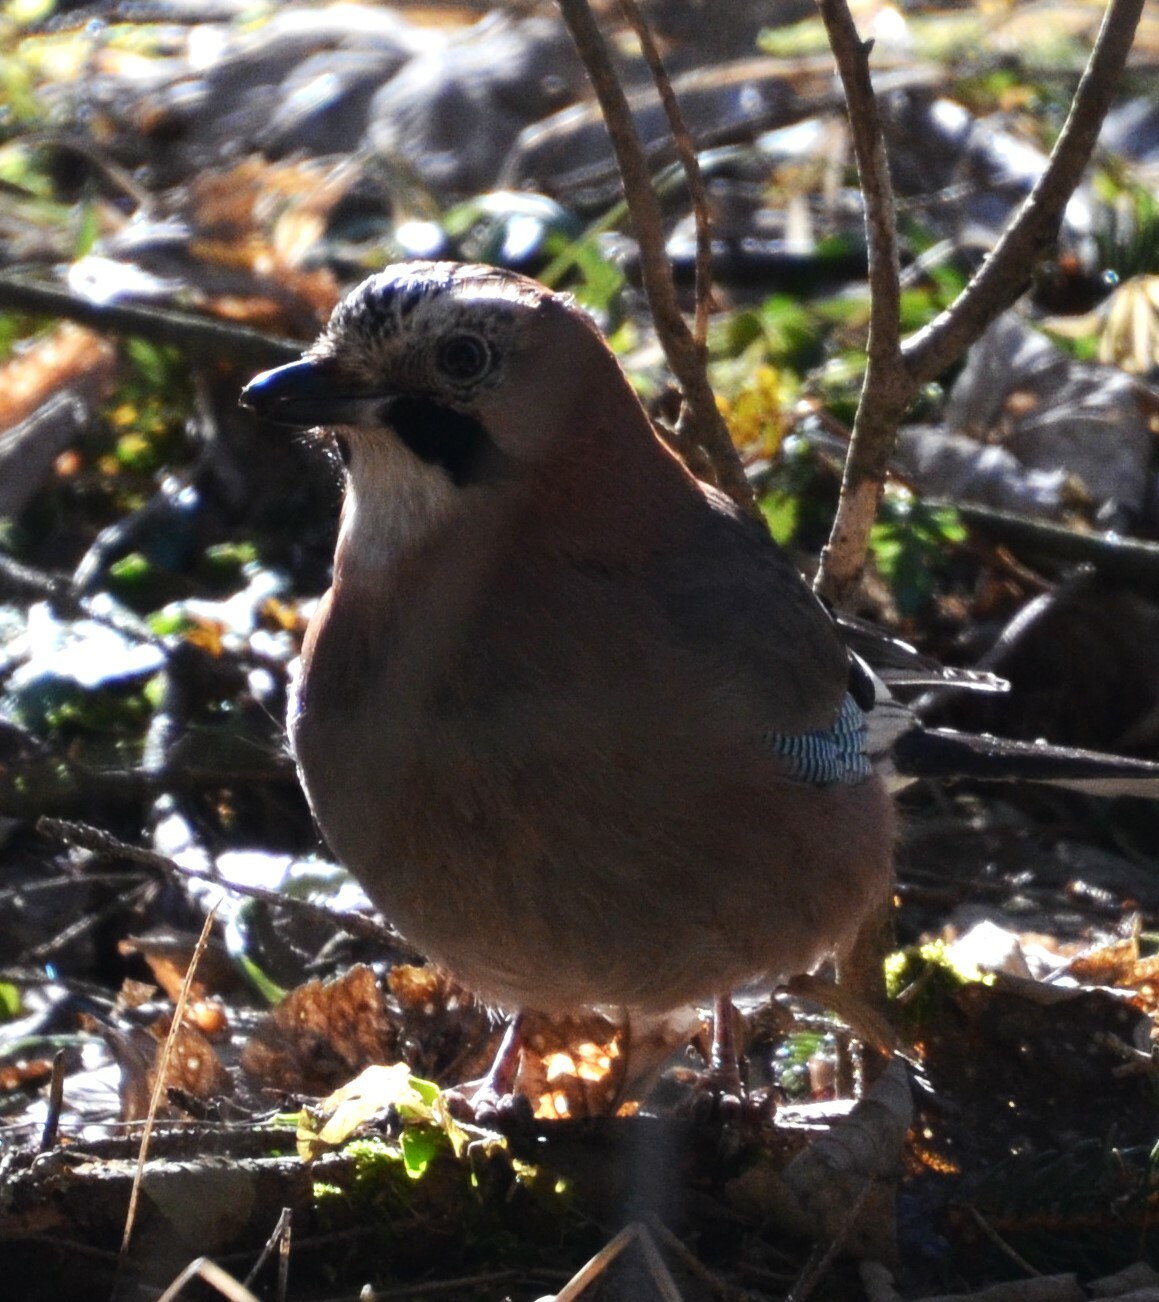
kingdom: Animalia
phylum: Chordata
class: Aves
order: Passeriformes
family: Corvidae
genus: Garrulus
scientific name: Garrulus glandarius
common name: Eurasian jay
